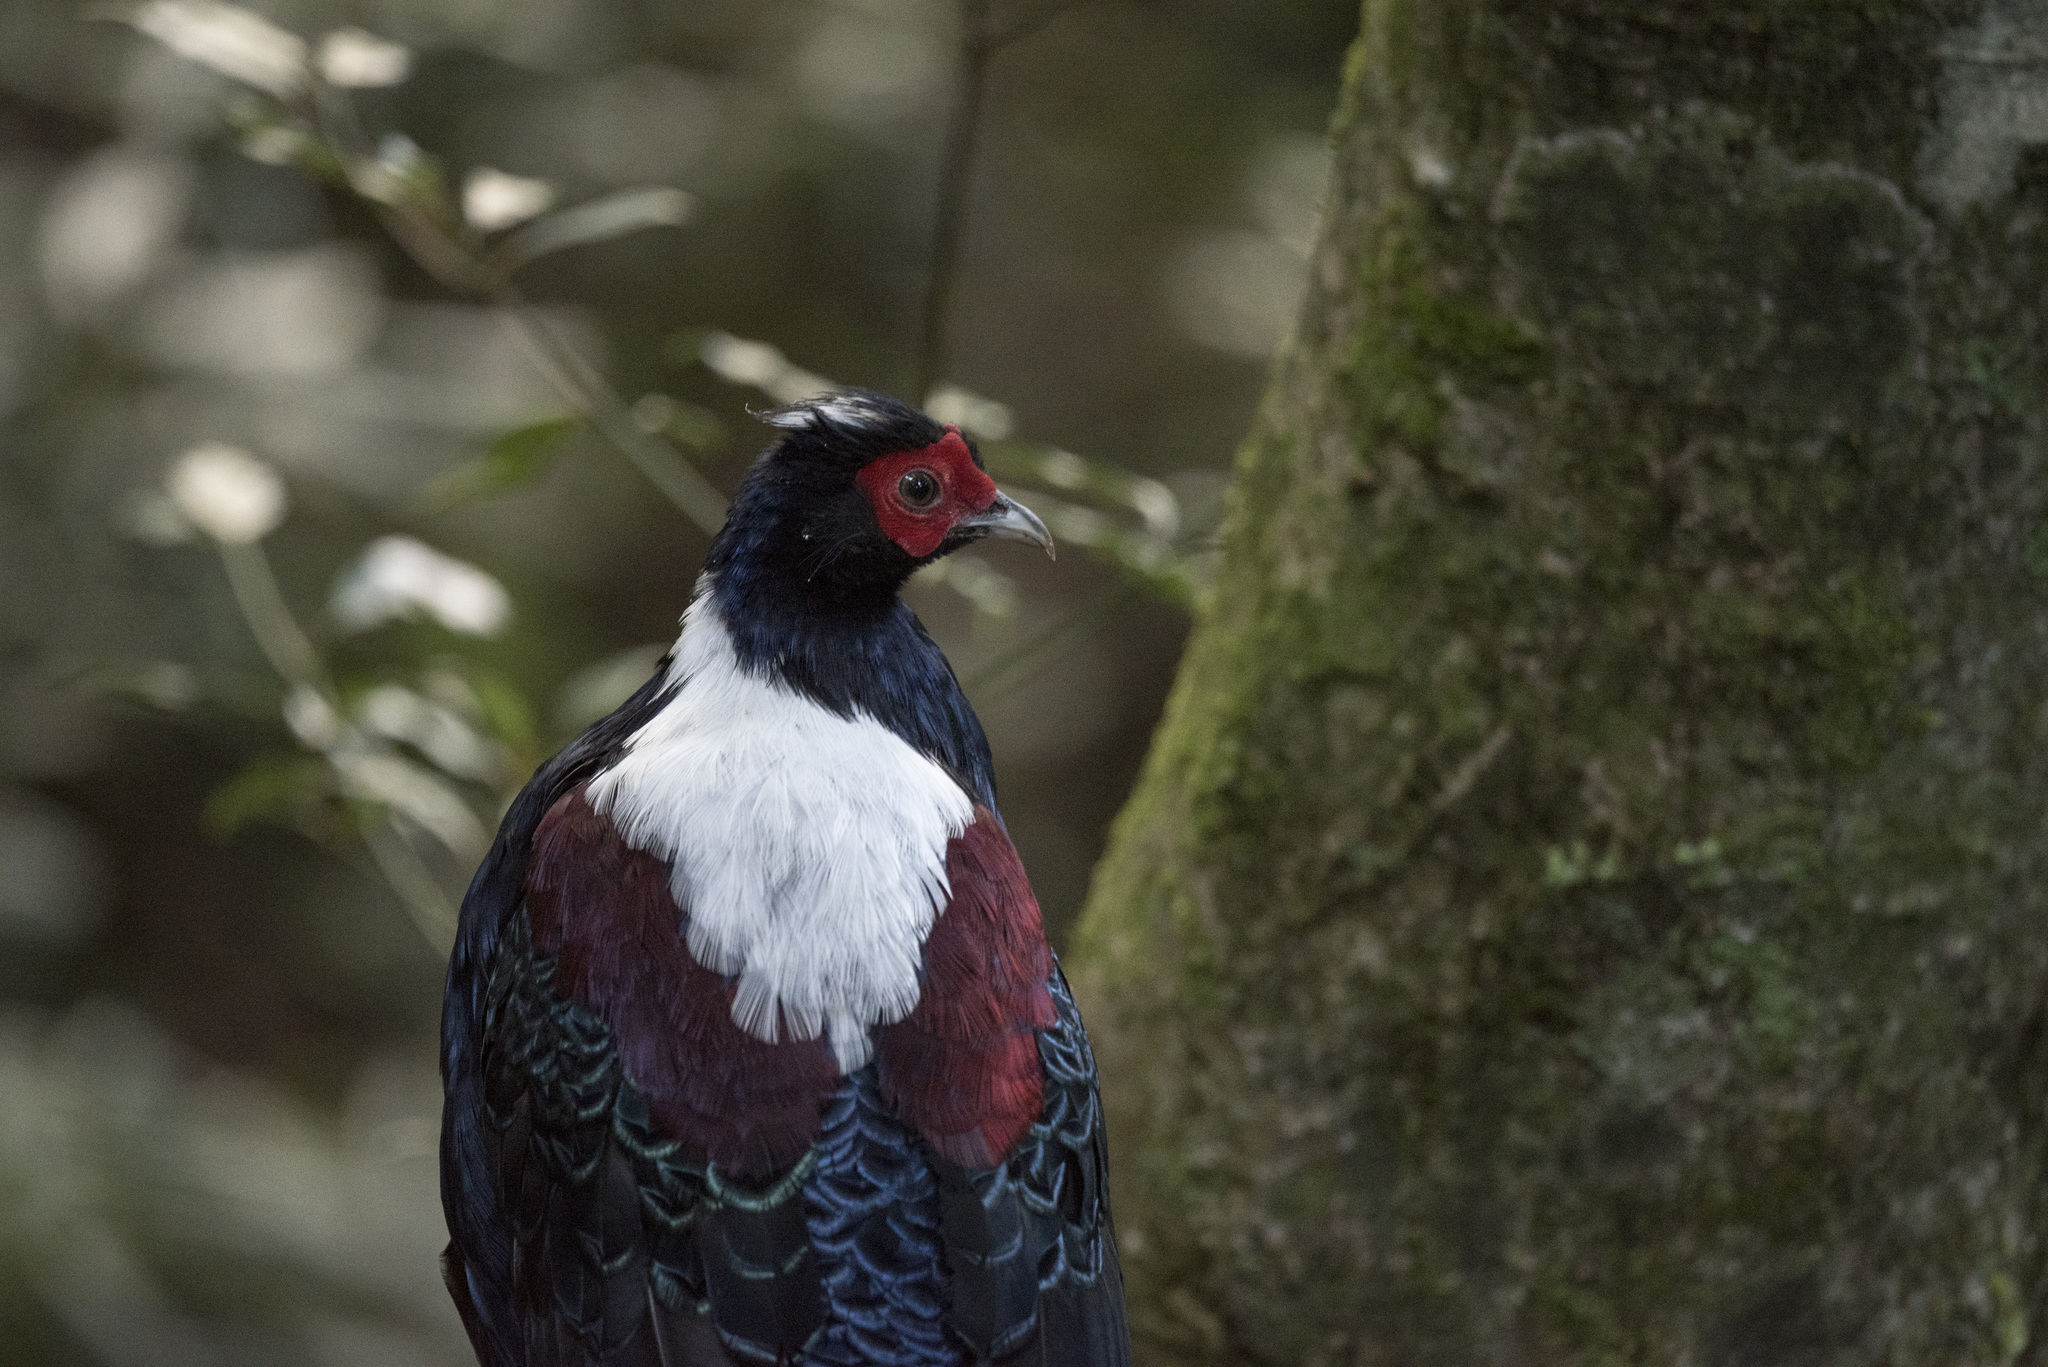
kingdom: Animalia
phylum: Chordata
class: Aves
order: Galliformes
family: Phasianidae
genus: Lophura
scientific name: Lophura swinhoii
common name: Swinhoe's pheasant
